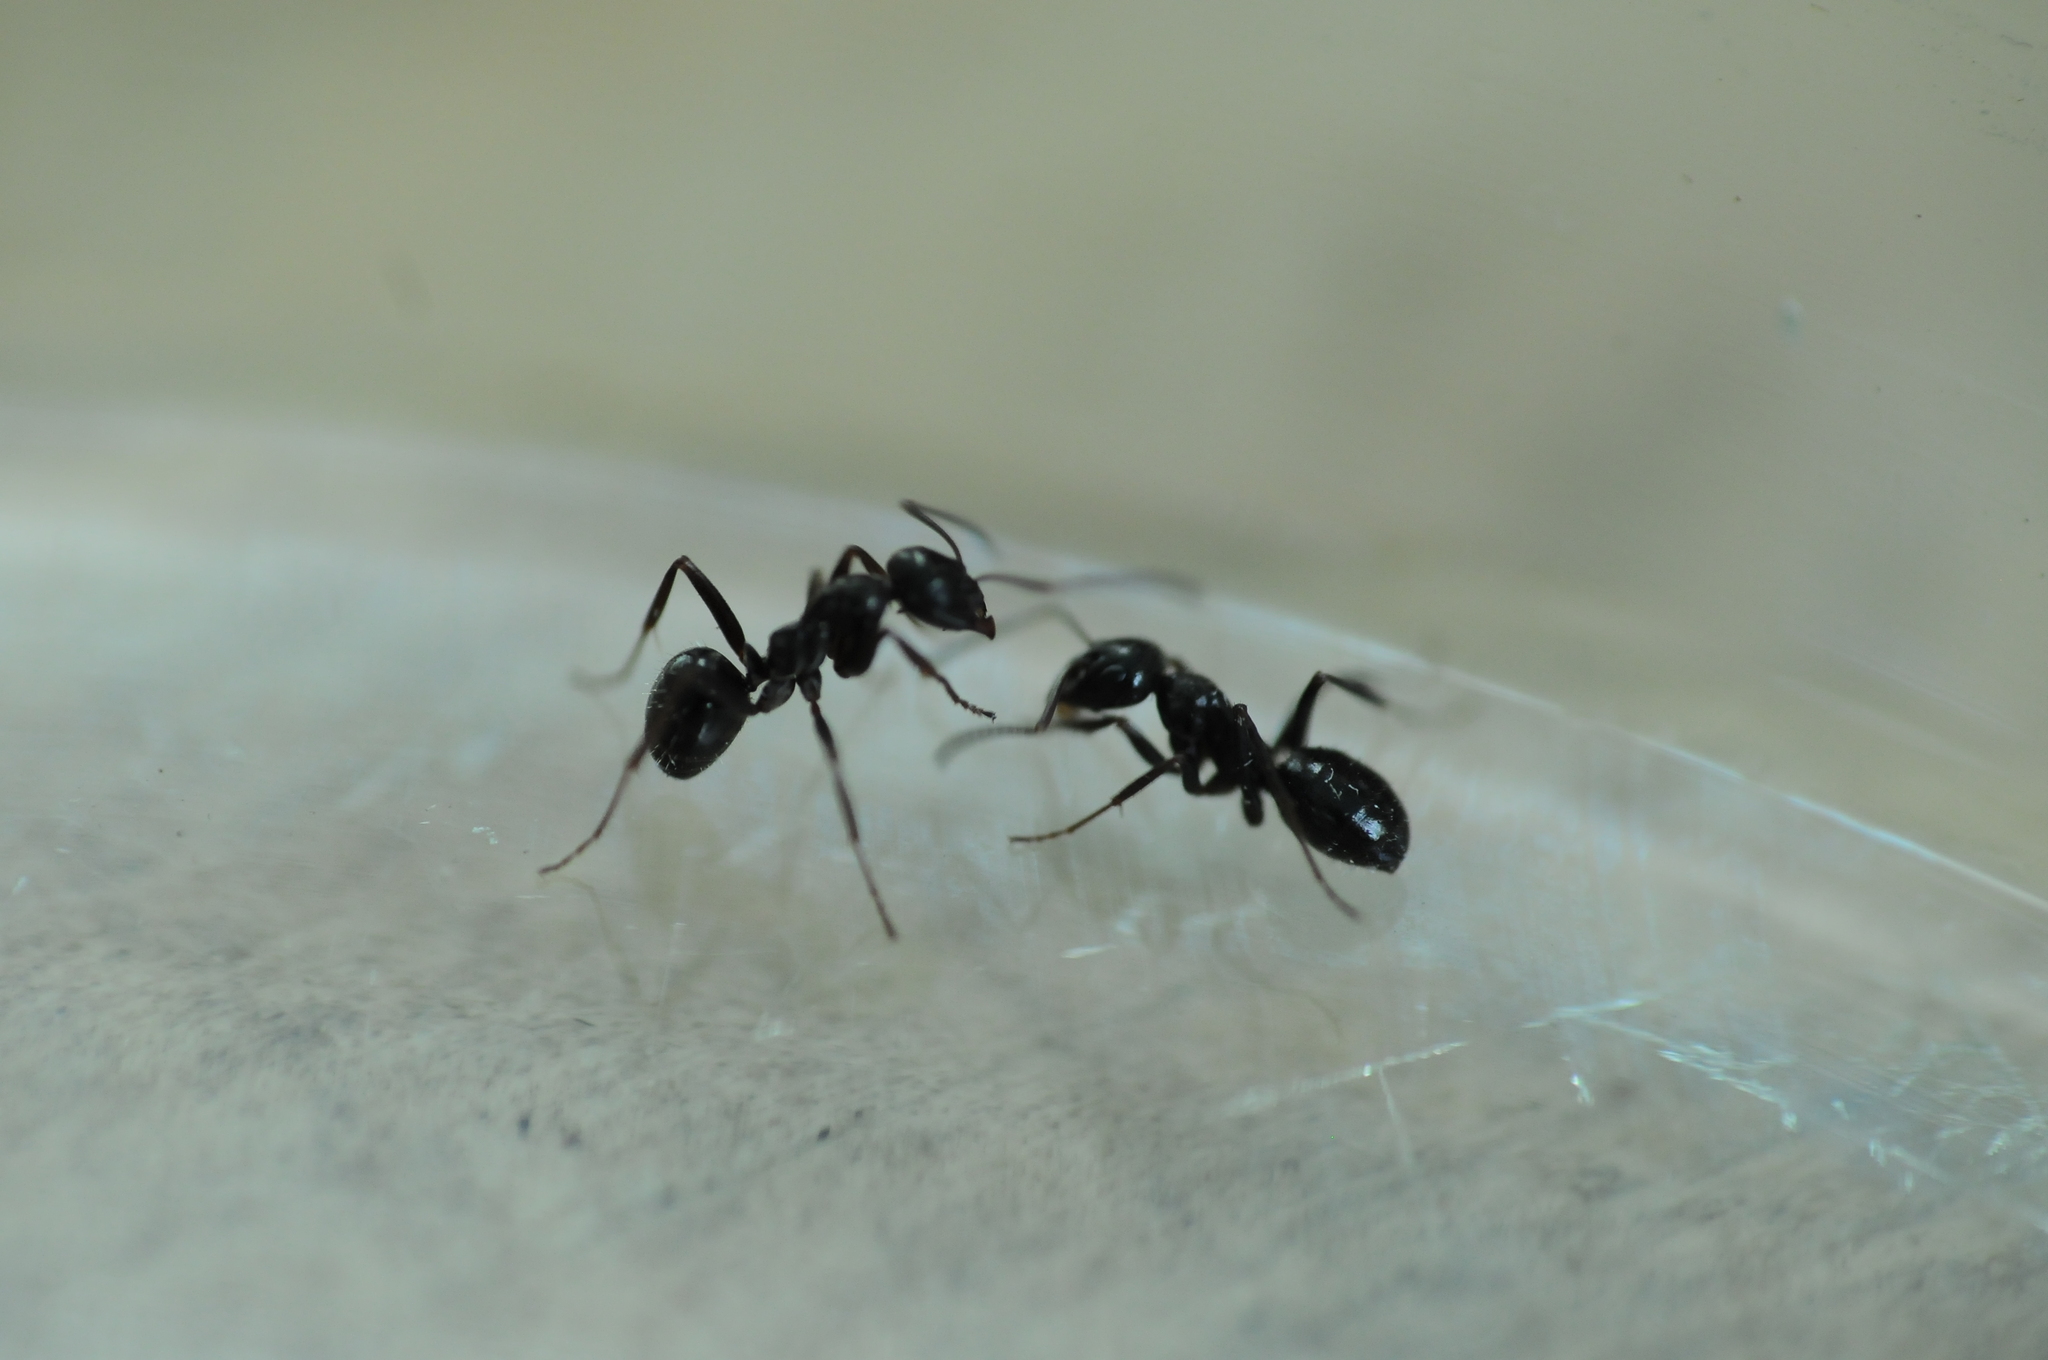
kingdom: Animalia
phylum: Arthropoda
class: Insecta
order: Hymenoptera
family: Formicidae
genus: Formica
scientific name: Formica picea
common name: Black bog ant
